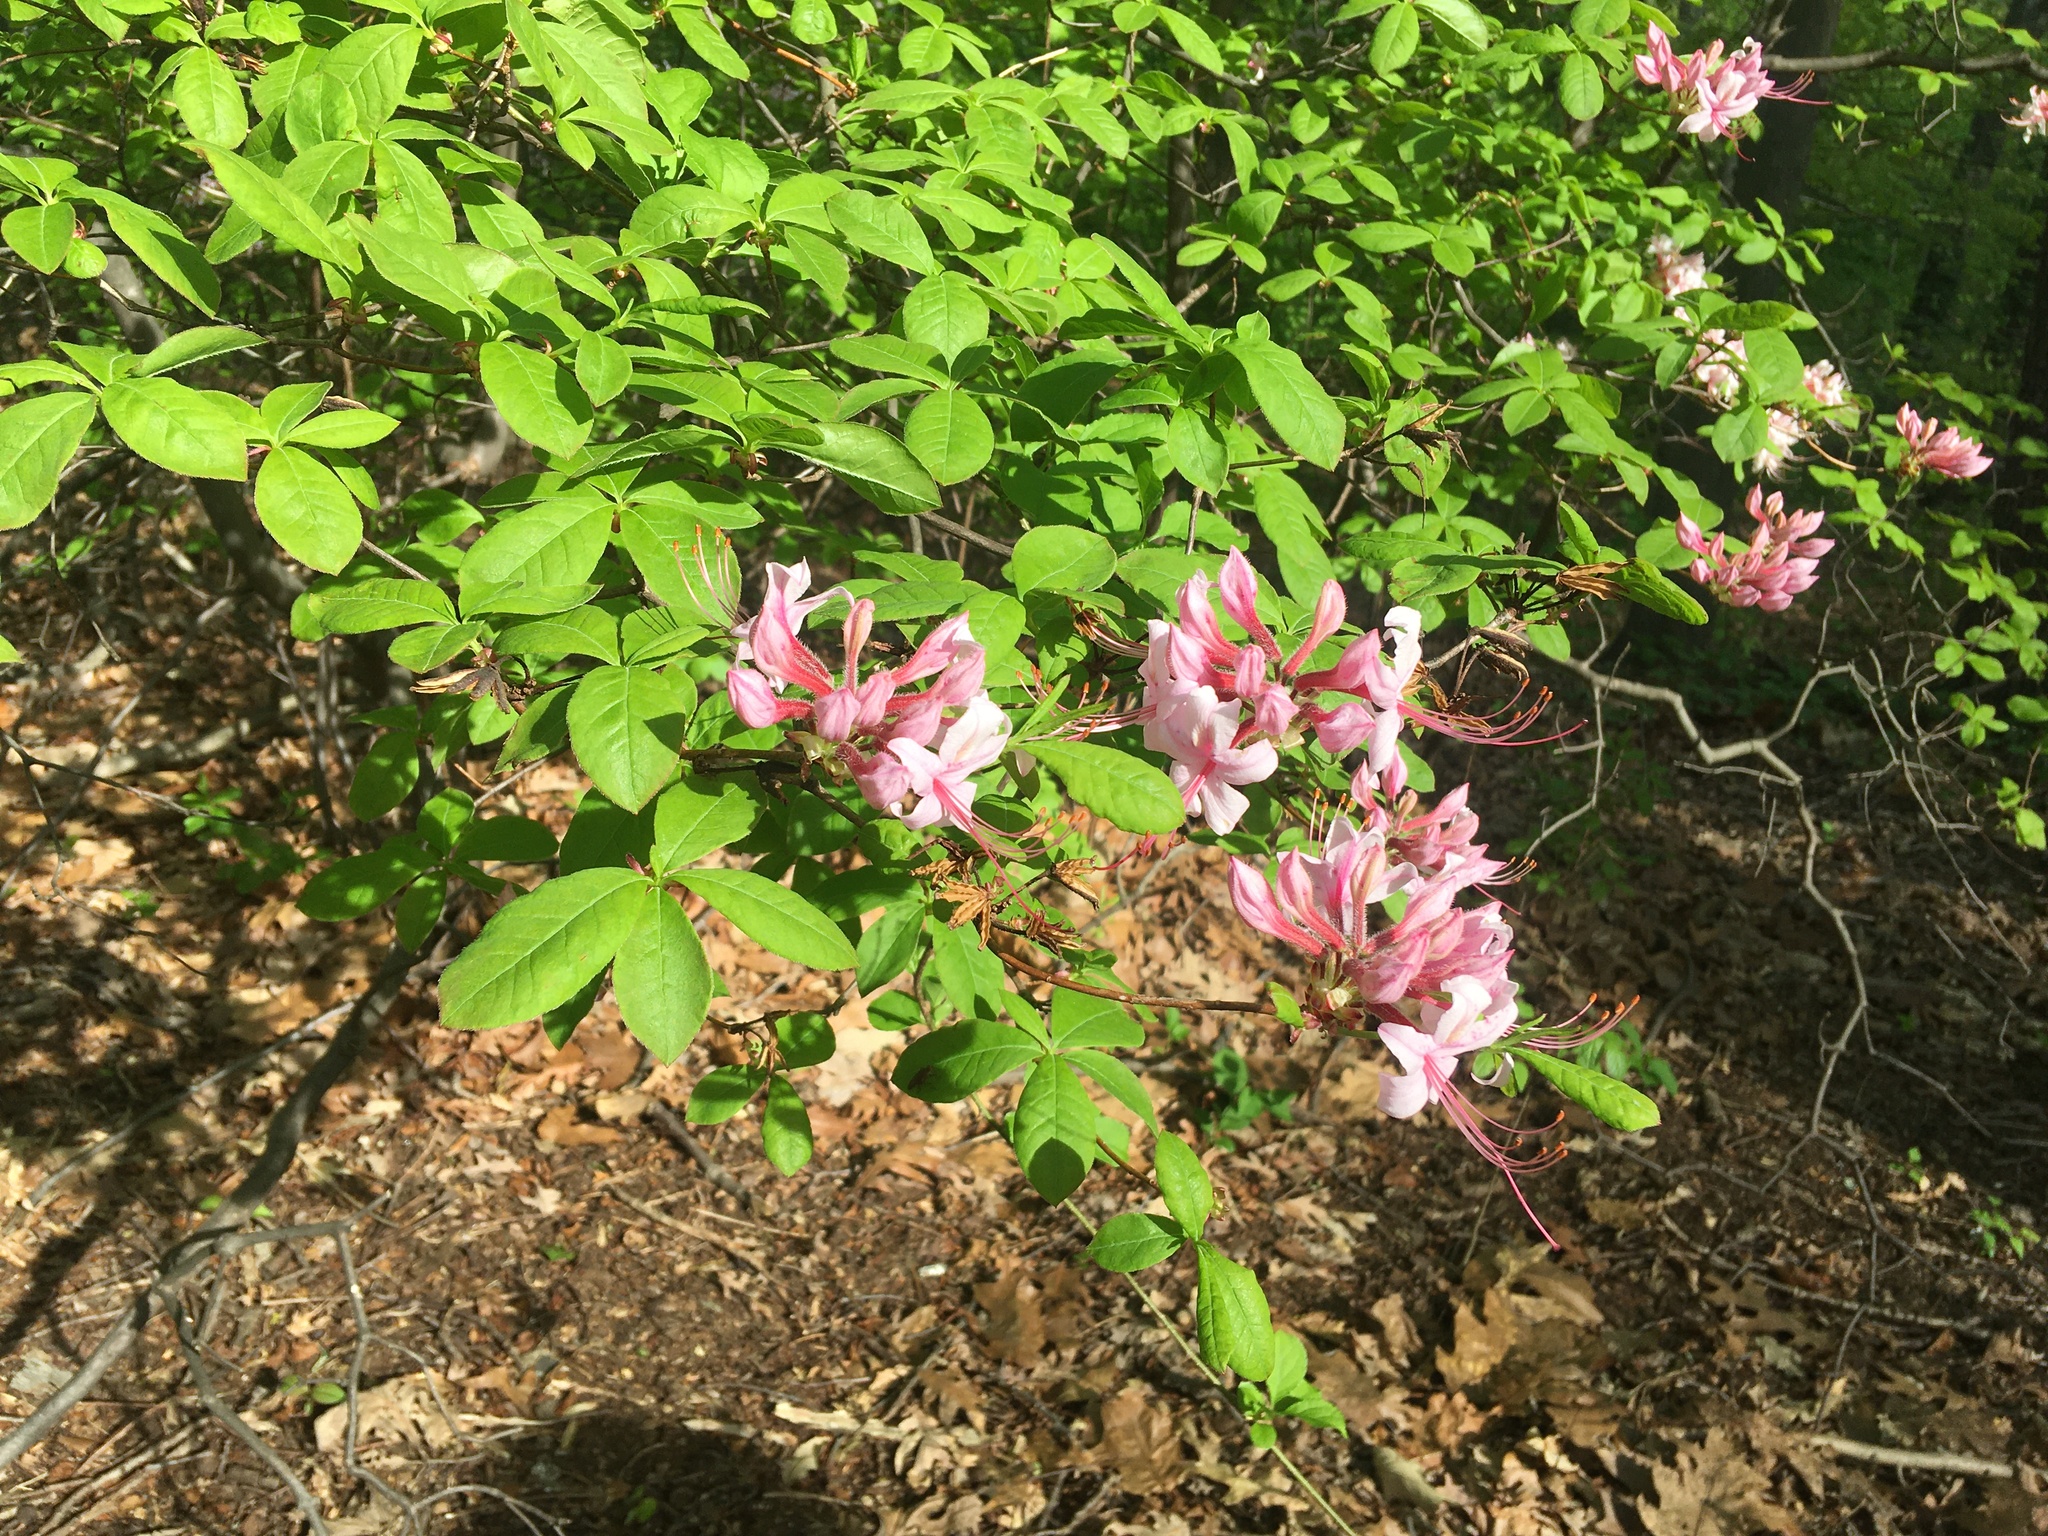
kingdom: Plantae
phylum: Tracheophyta
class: Magnoliopsida
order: Ericales
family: Ericaceae
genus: Rhododendron
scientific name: Rhododendron periclymenoides
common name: Election-pink
